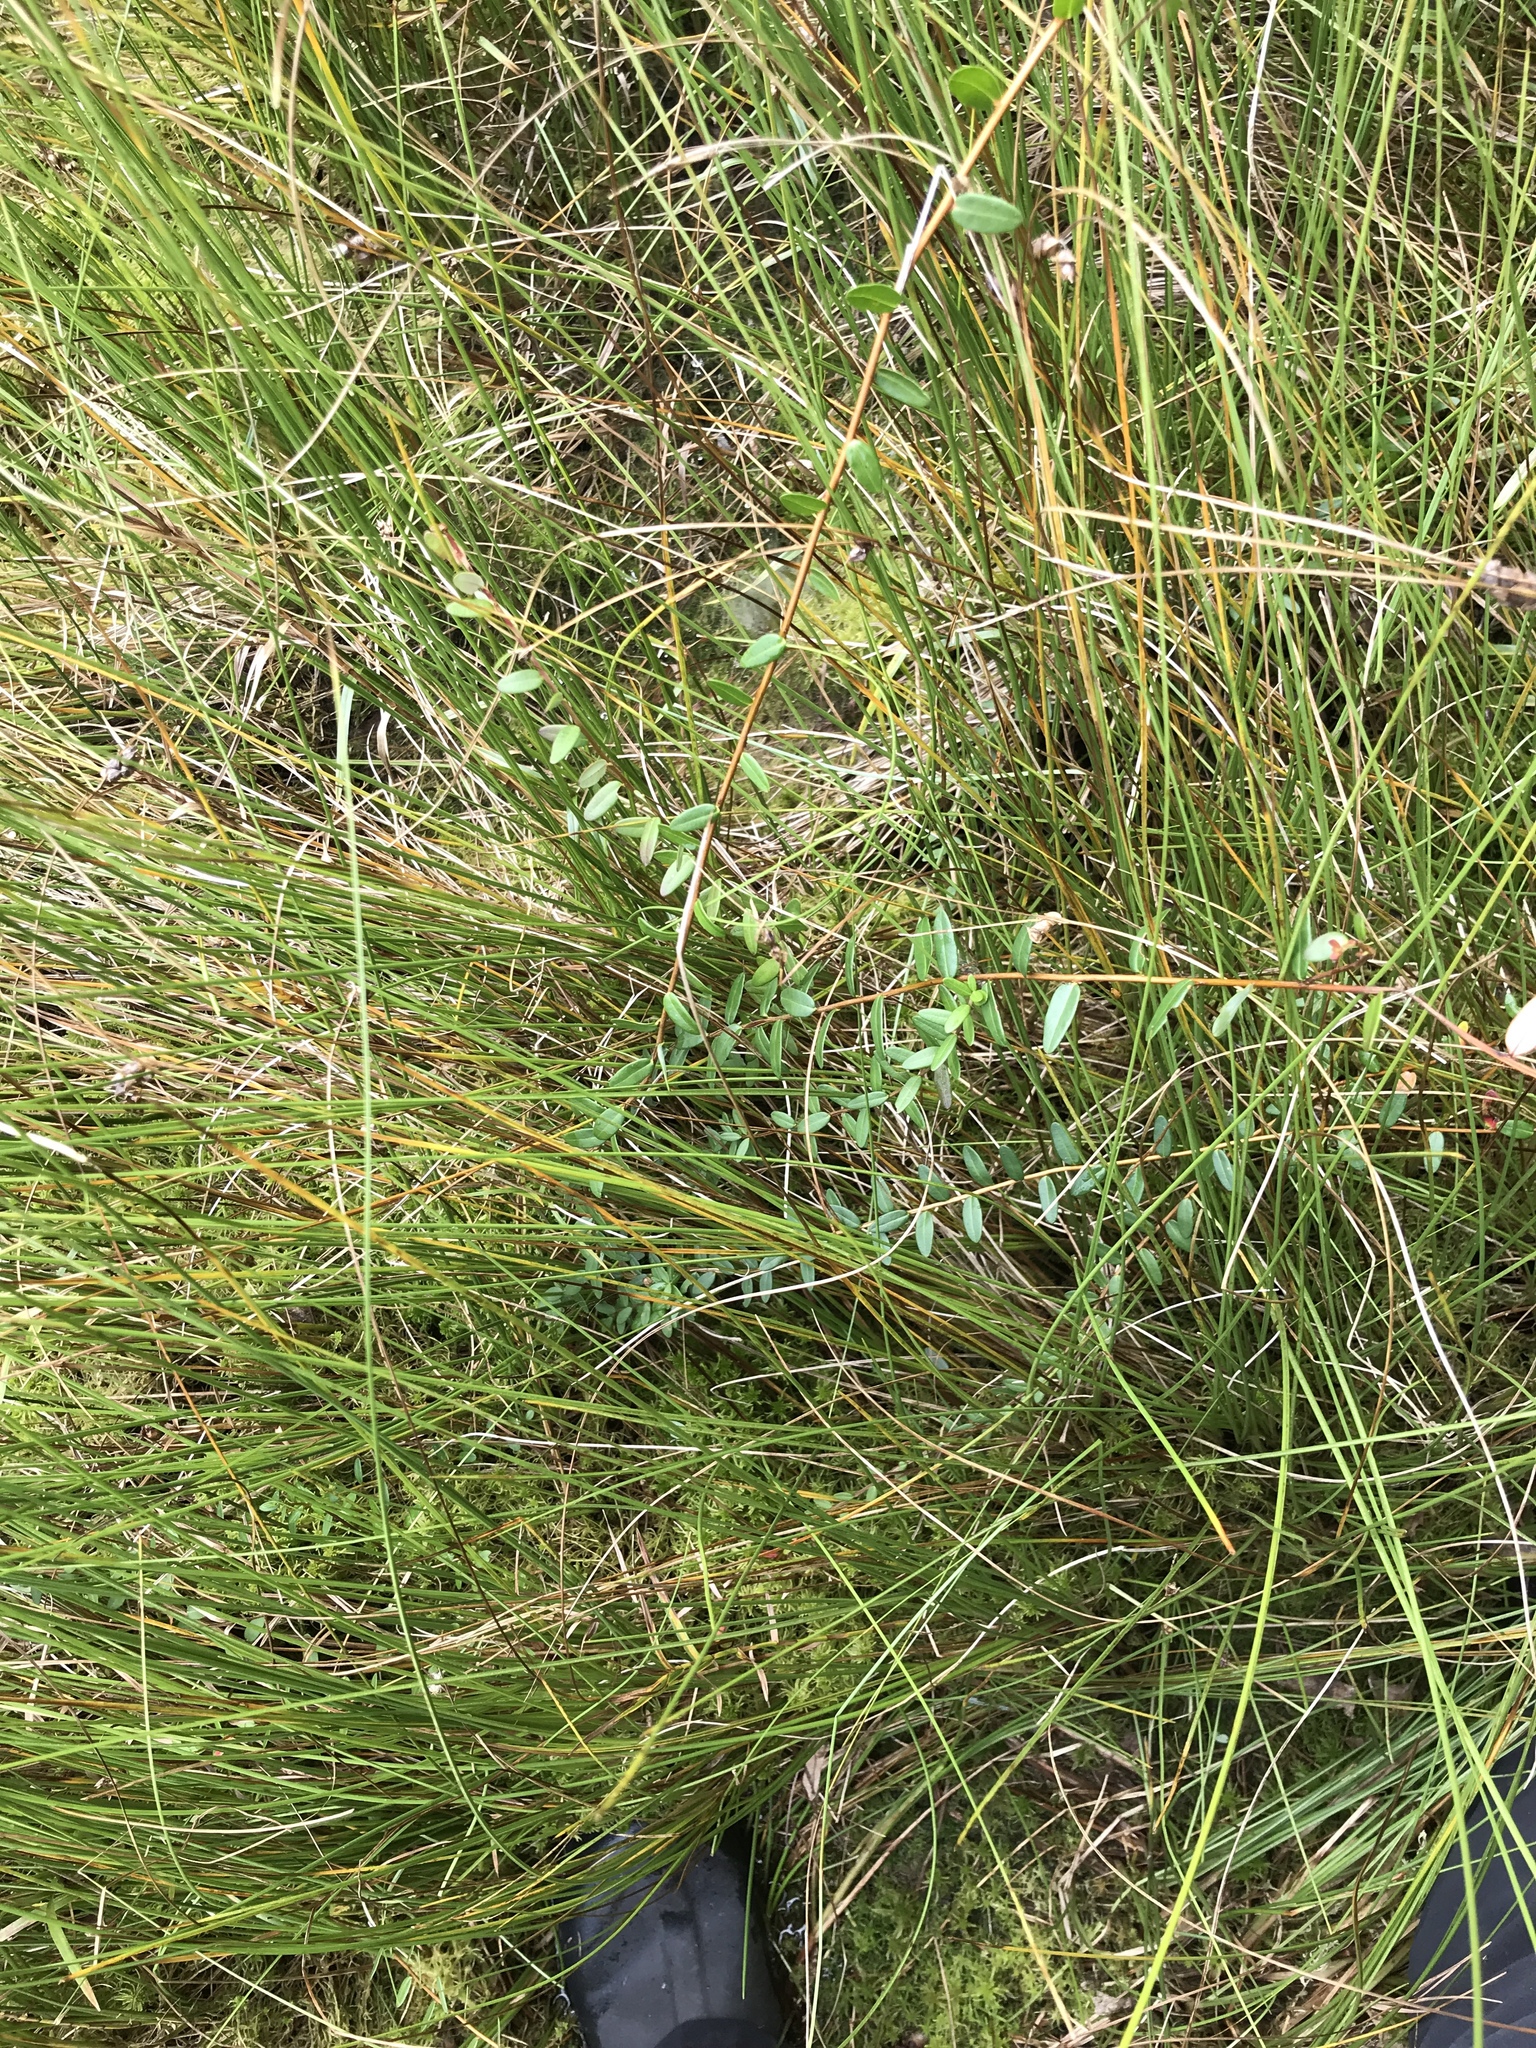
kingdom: Plantae
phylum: Tracheophyta
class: Magnoliopsida
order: Ericales
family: Ericaceae
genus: Vaccinium
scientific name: Vaccinium macrocarpon
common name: American cranberry
